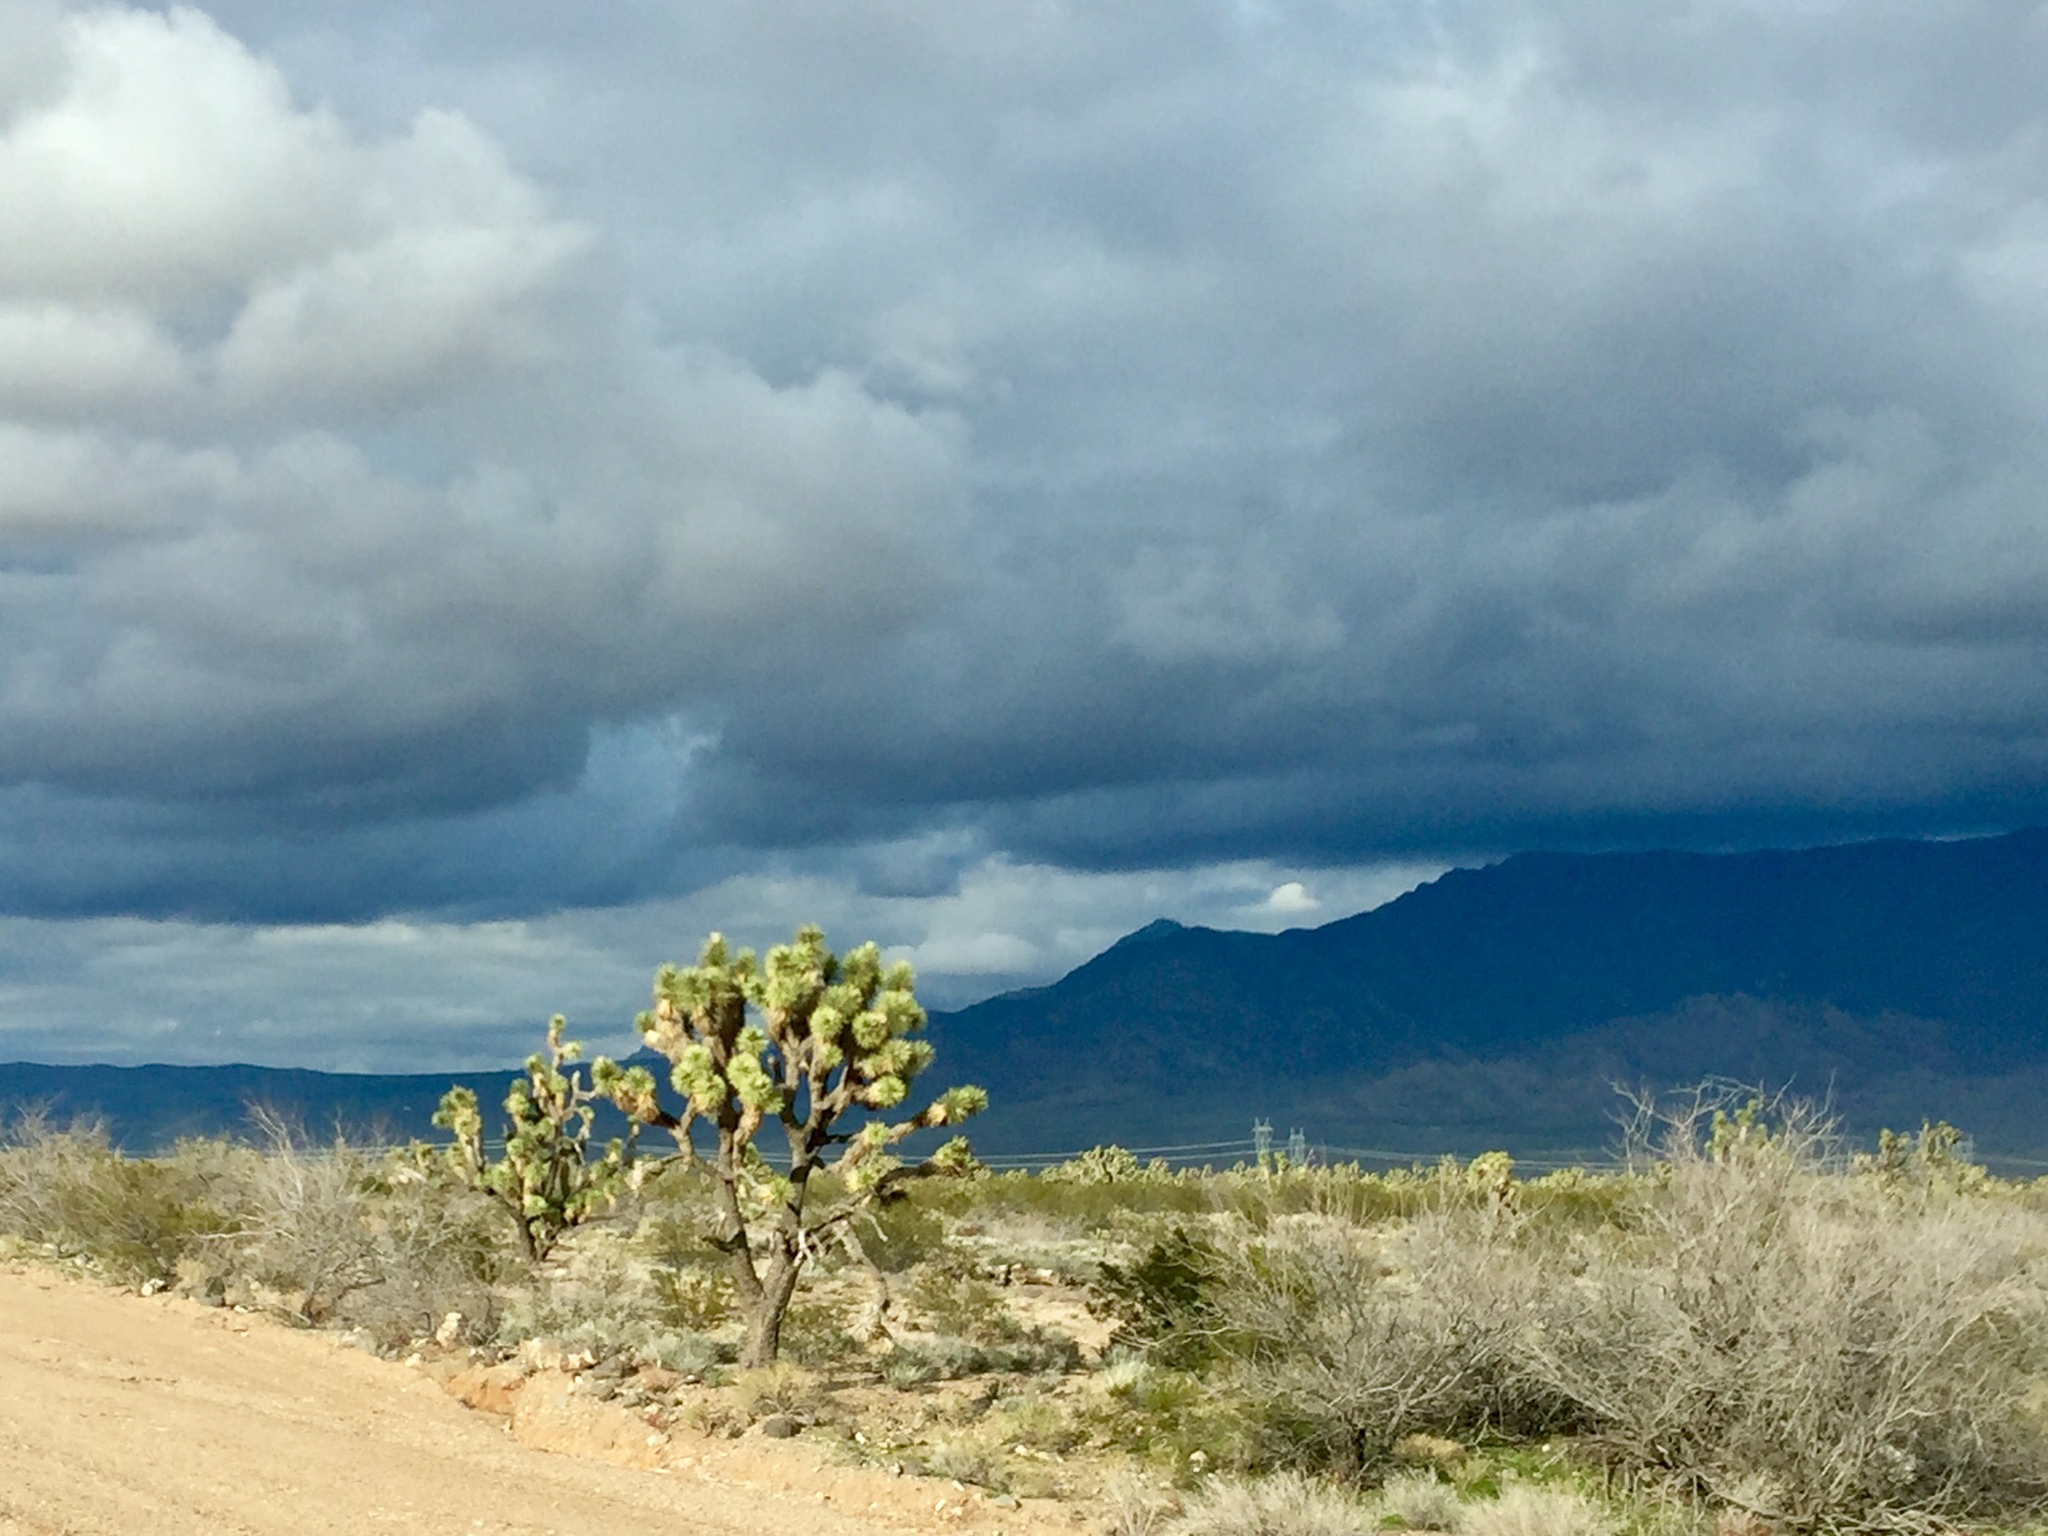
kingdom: Plantae
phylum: Tracheophyta
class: Liliopsida
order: Asparagales
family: Asparagaceae
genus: Yucca
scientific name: Yucca brevifolia
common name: Joshua tree
